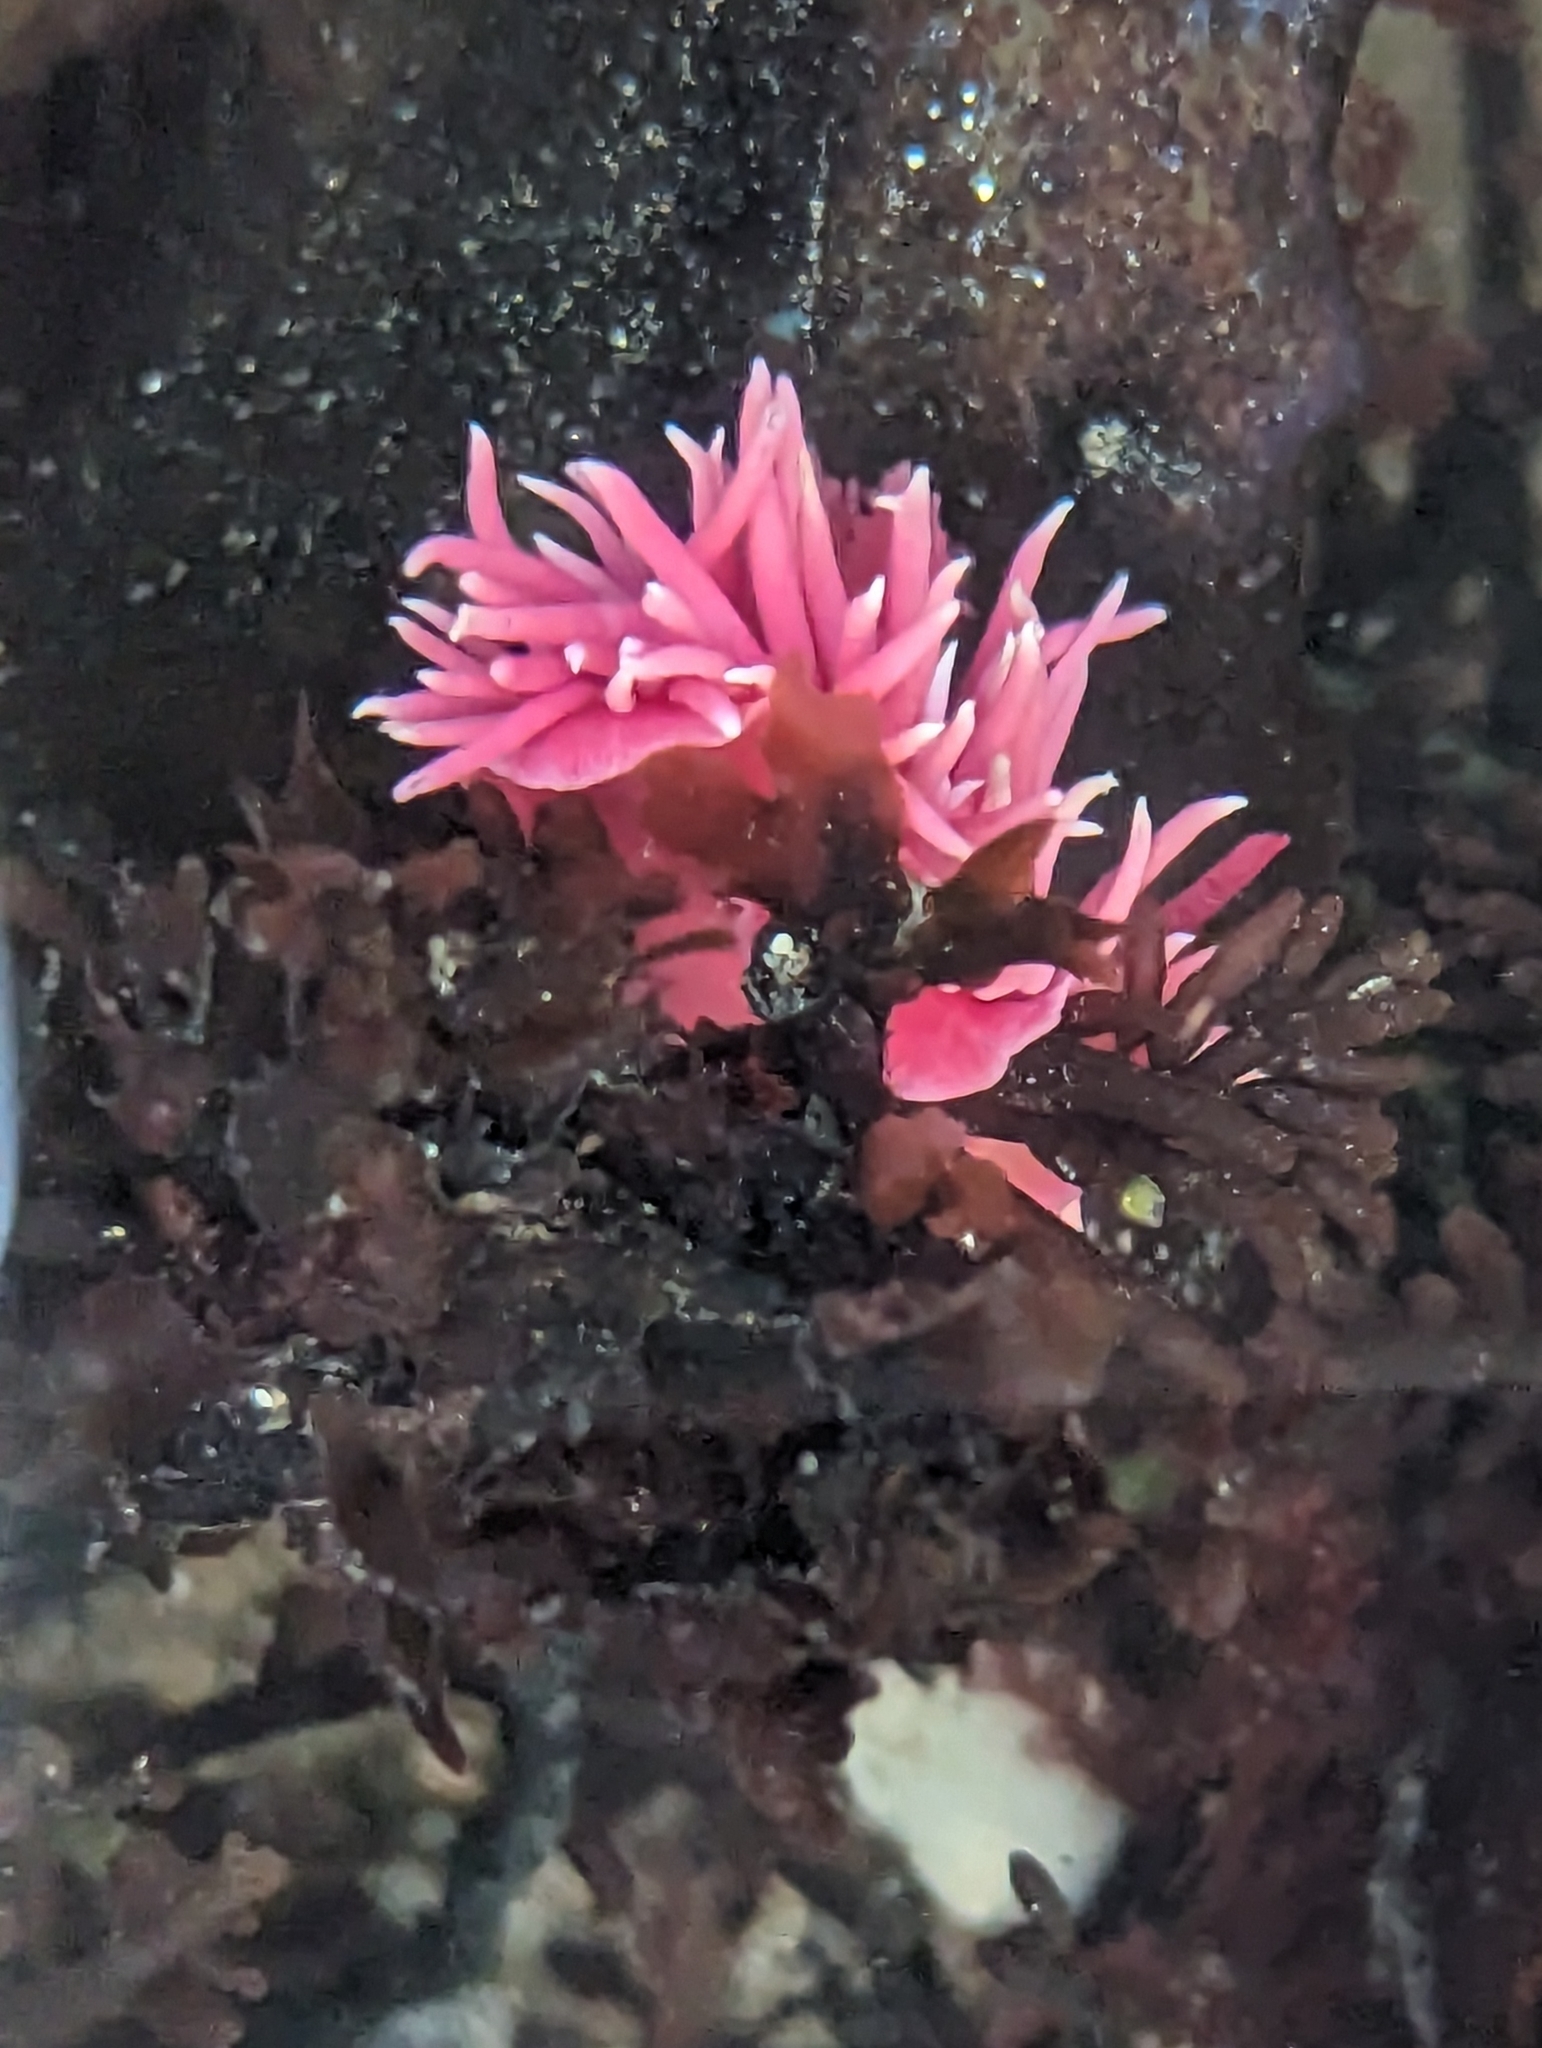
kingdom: Animalia
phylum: Mollusca
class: Gastropoda
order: Nudibranchia
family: Goniodorididae
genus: Okenia
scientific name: Okenia
